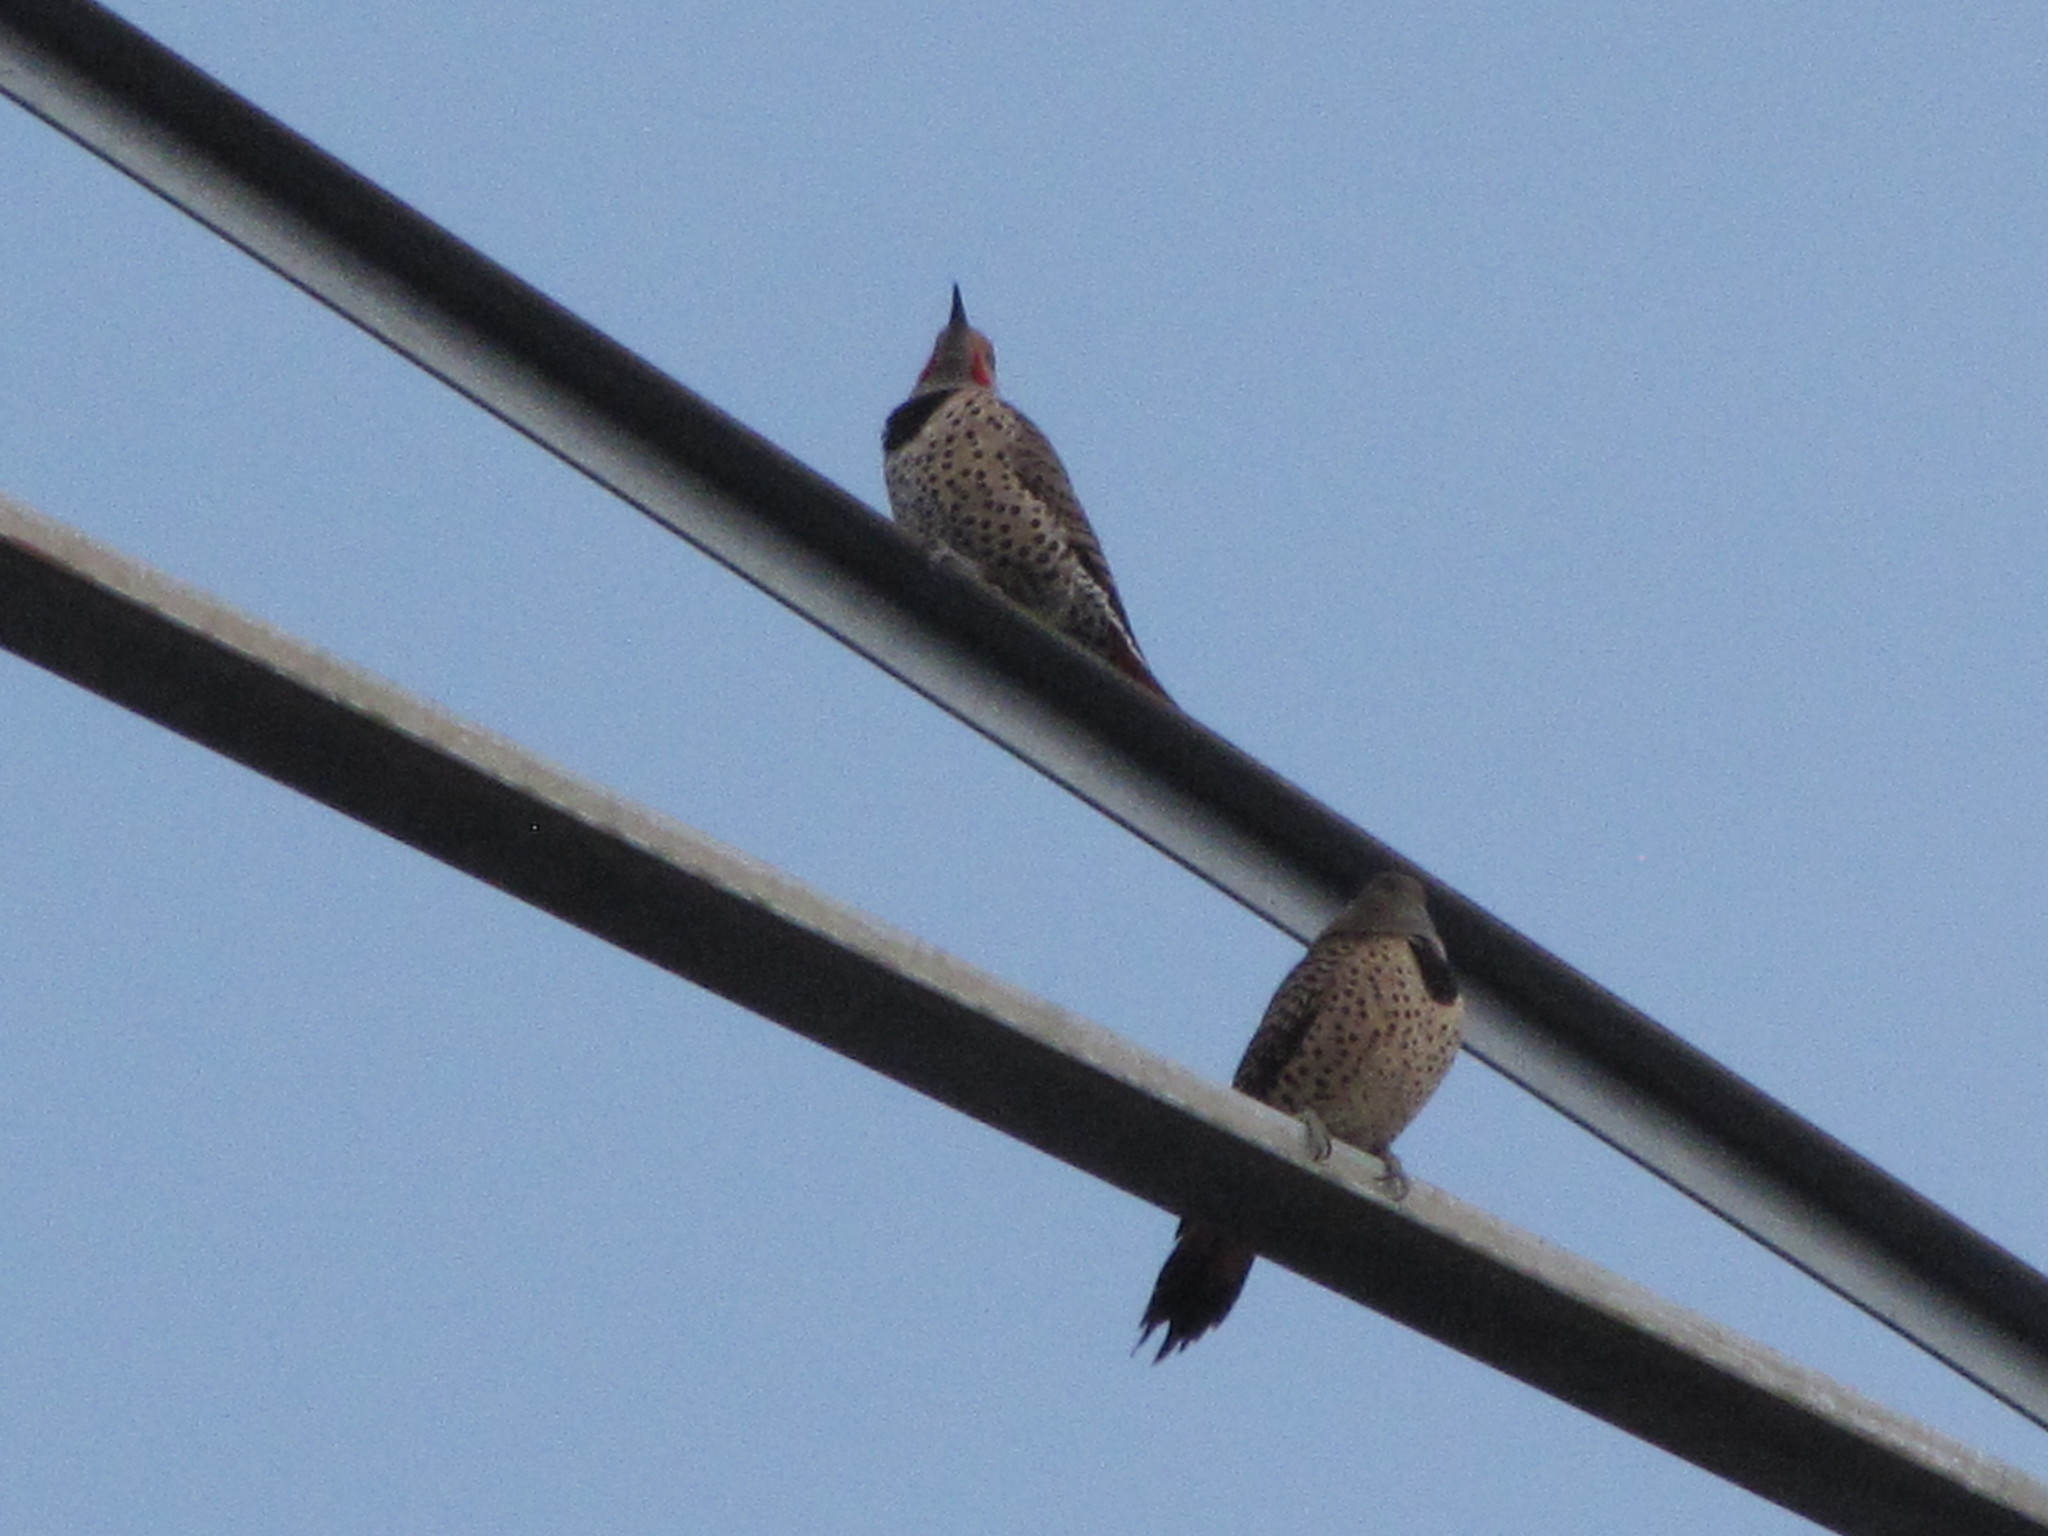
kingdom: Animalia
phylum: Chordata
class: Aves
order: Piciformes
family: Picidae
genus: Colaptes
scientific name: Colaptes auratus
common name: Northern flicker
